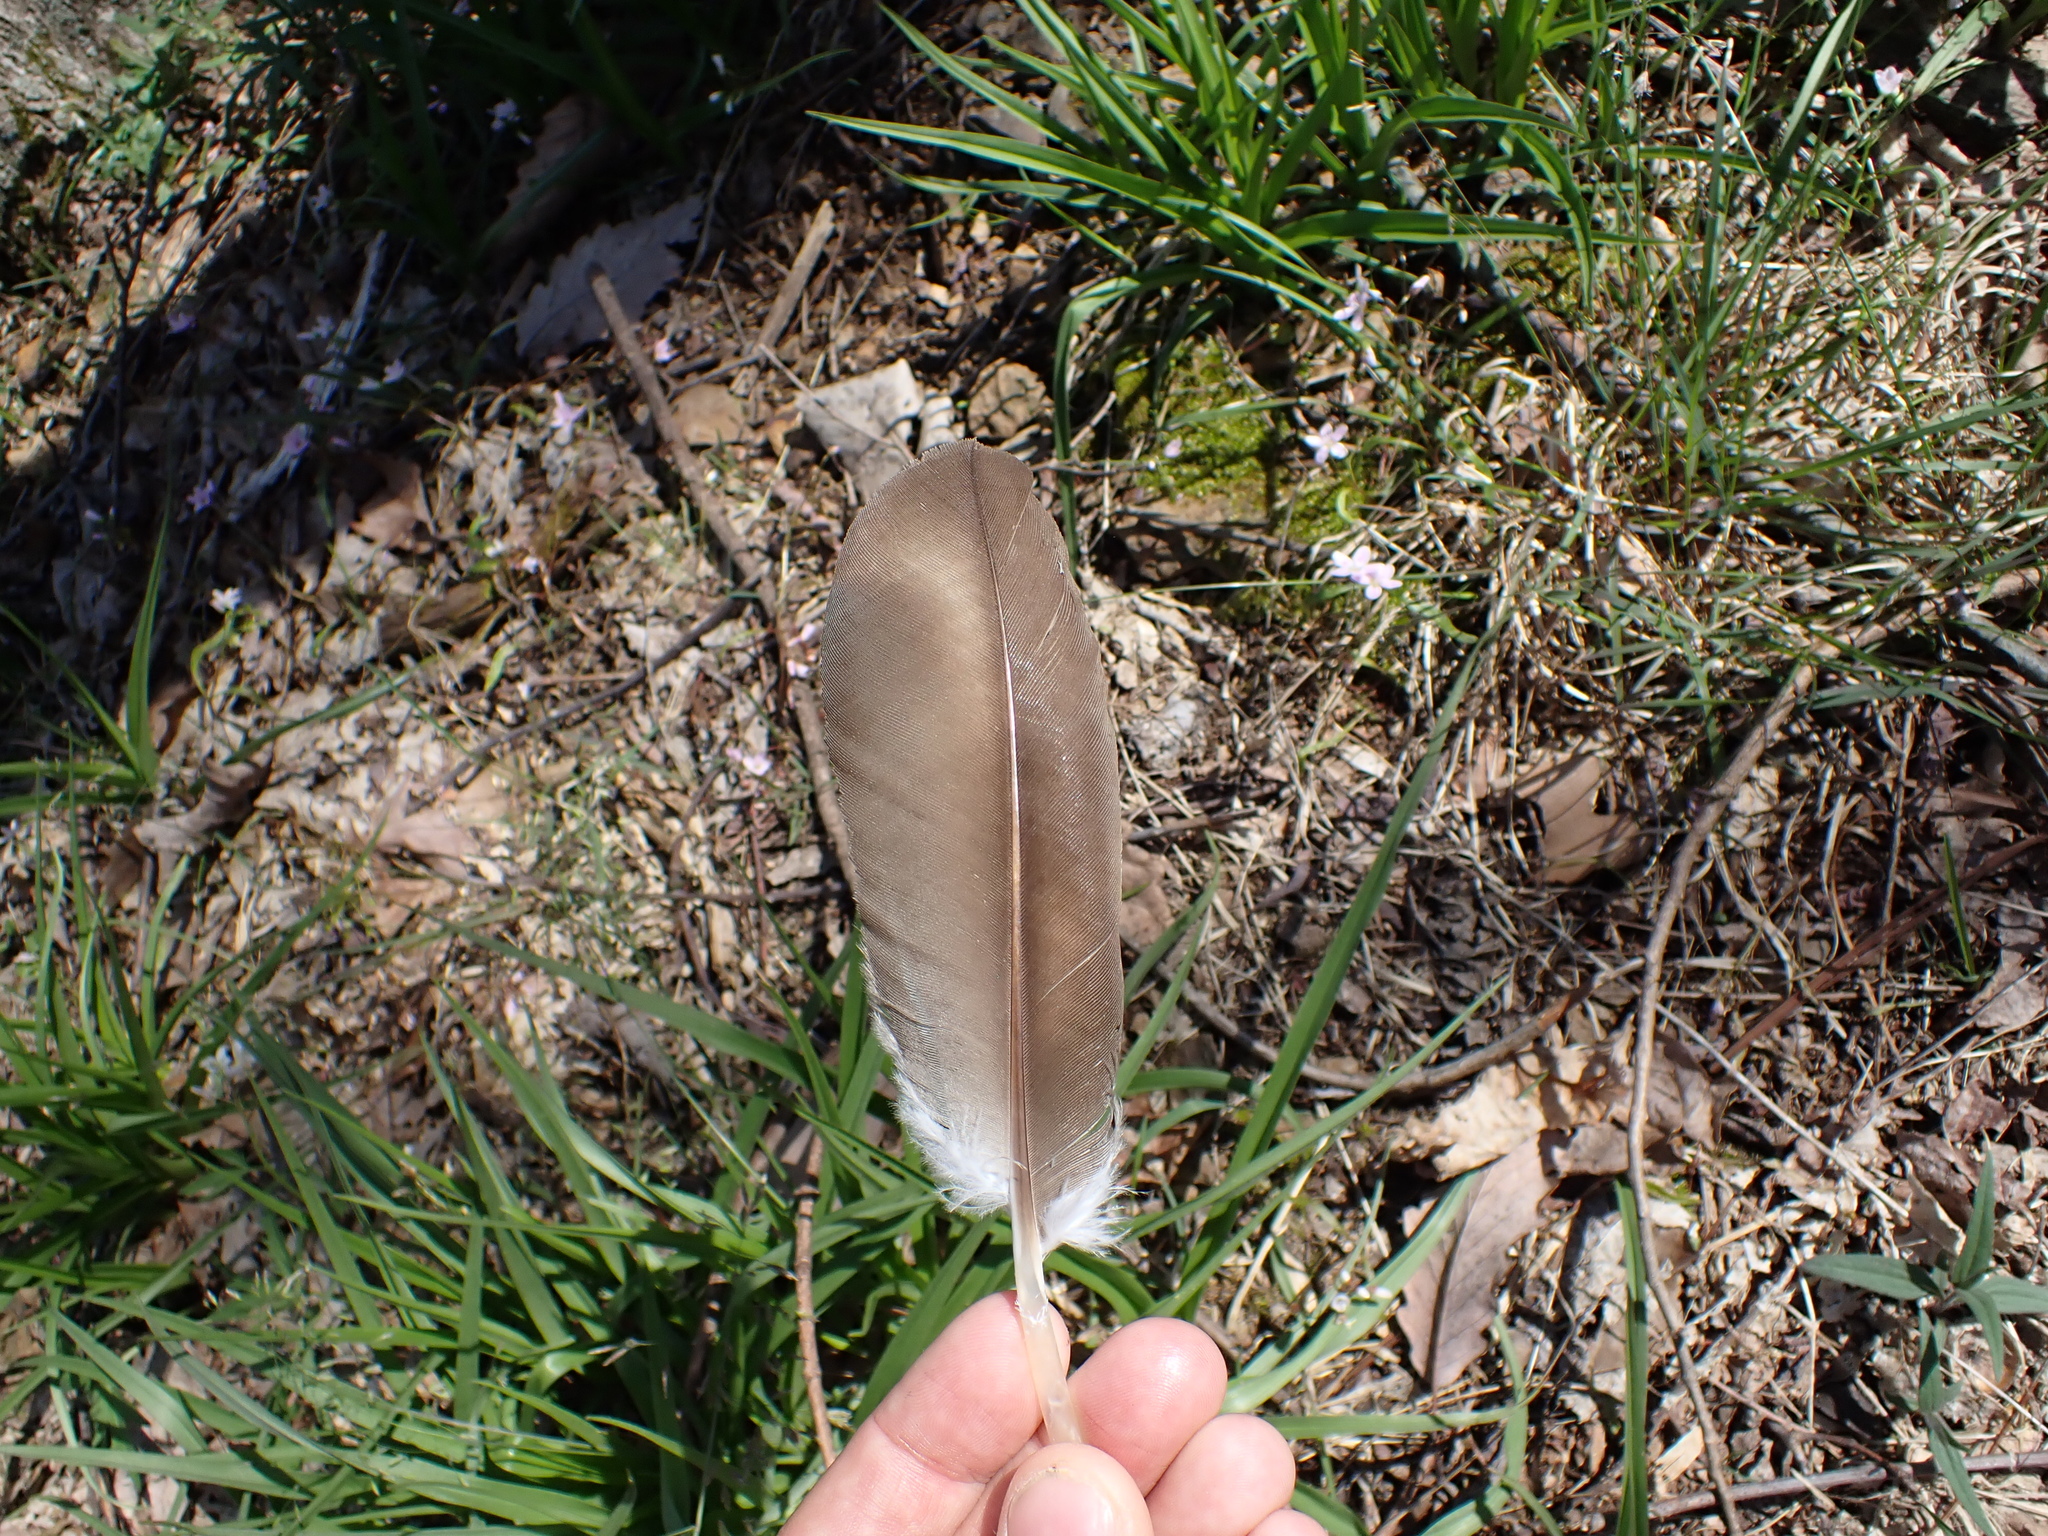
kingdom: Animalia
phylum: Chordata
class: Aves
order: Accipitriformes
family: Cathartidae
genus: Cathartes
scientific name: Cathartes aura
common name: Turkey vulture
